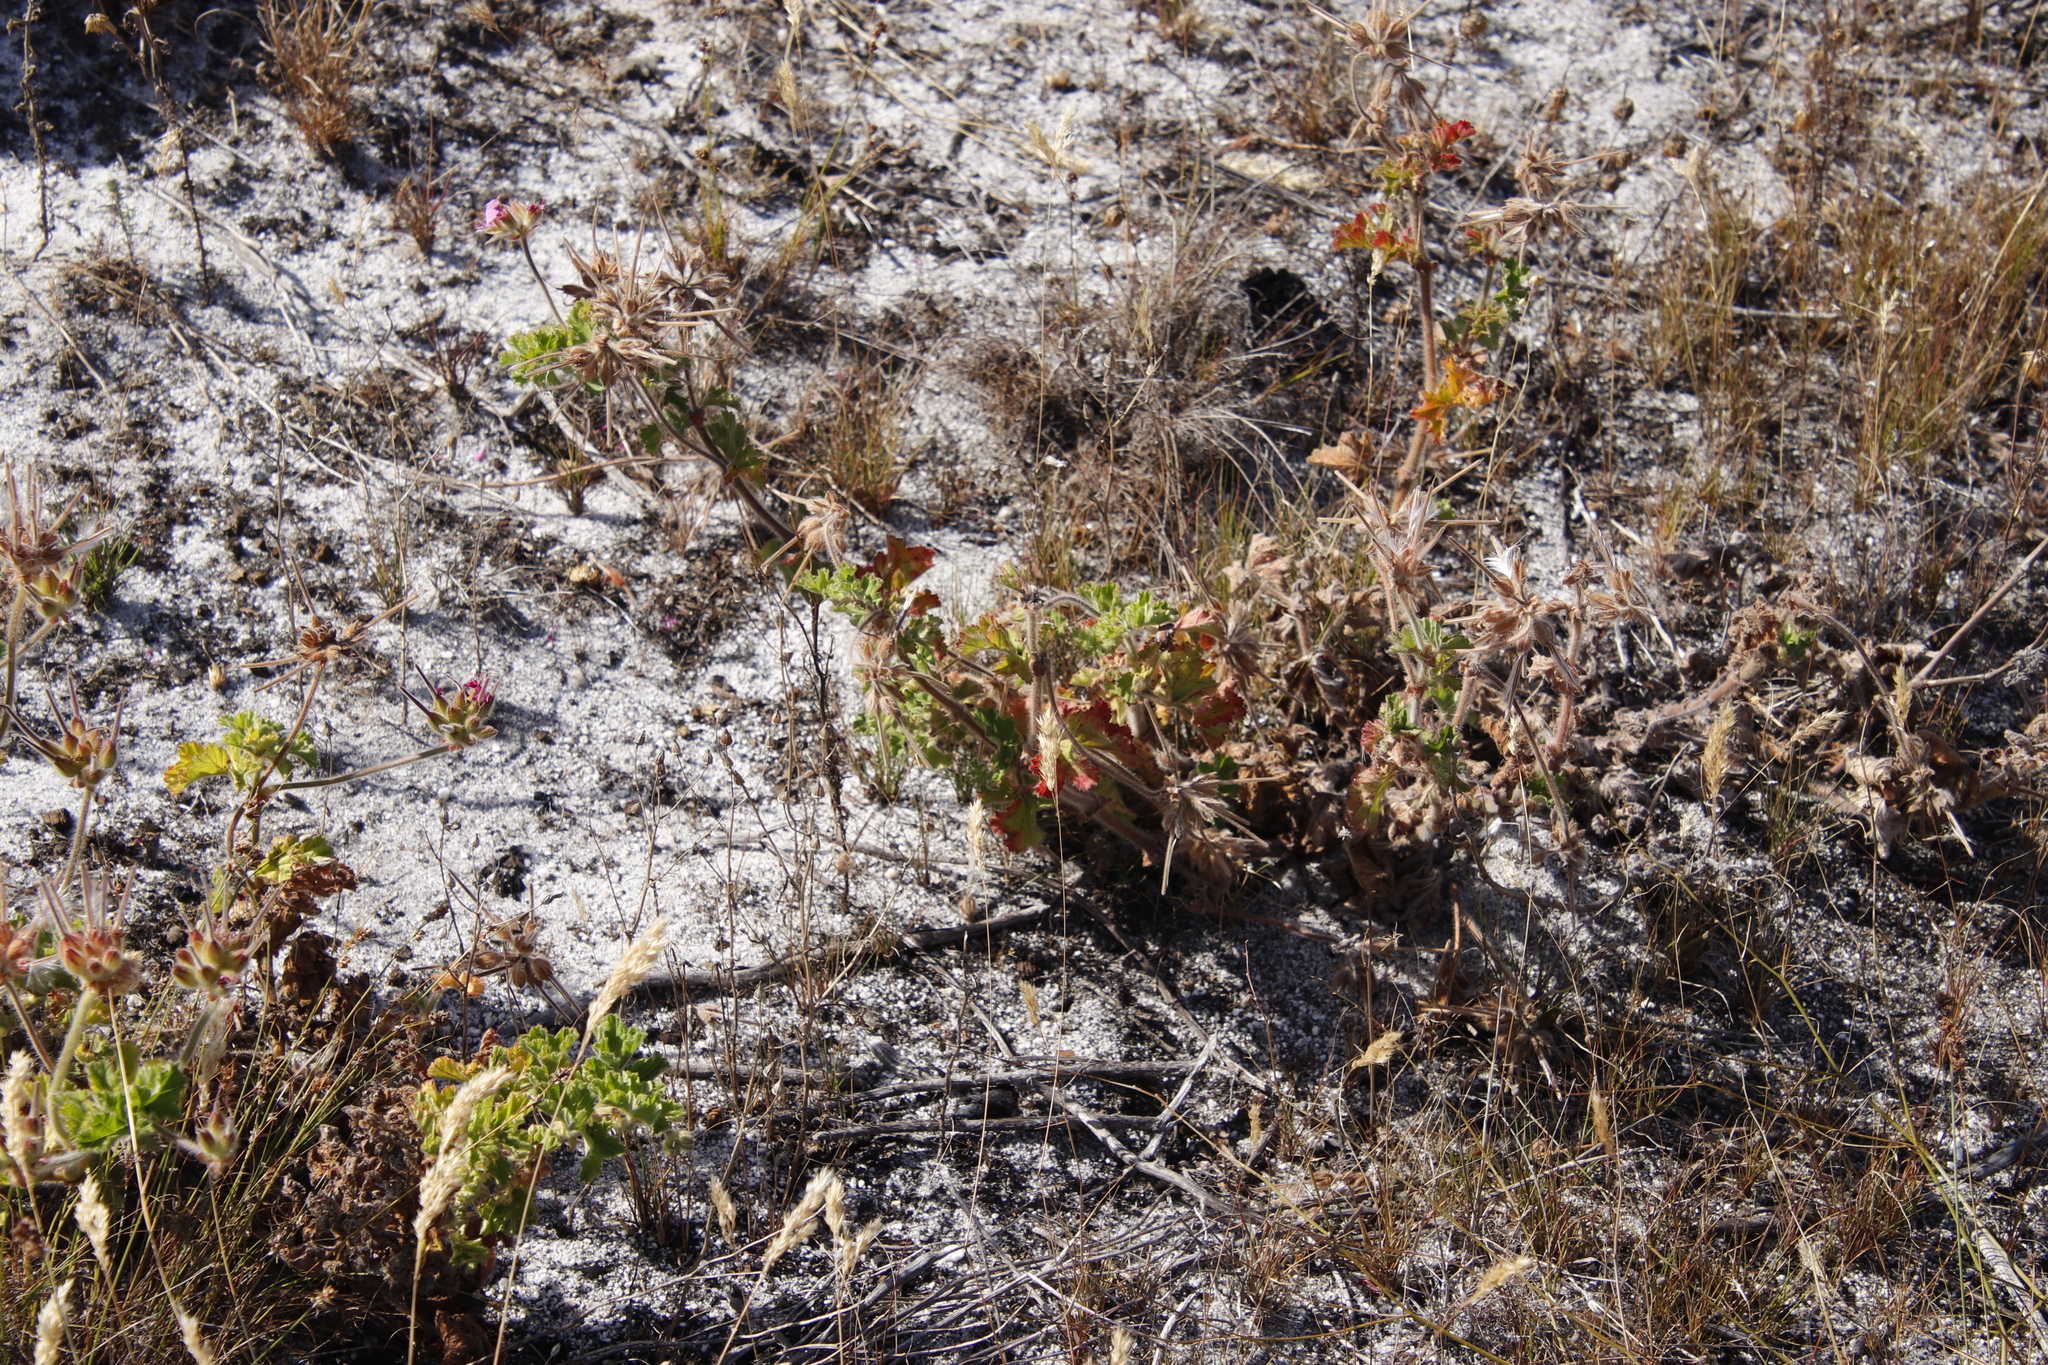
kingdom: Plantae
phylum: Tracheophyta
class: Magnoliopsida
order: Geraniales
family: Geraniaceae
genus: Pelargonium
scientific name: Pelargonium capitatum
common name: Rose scented geranium
